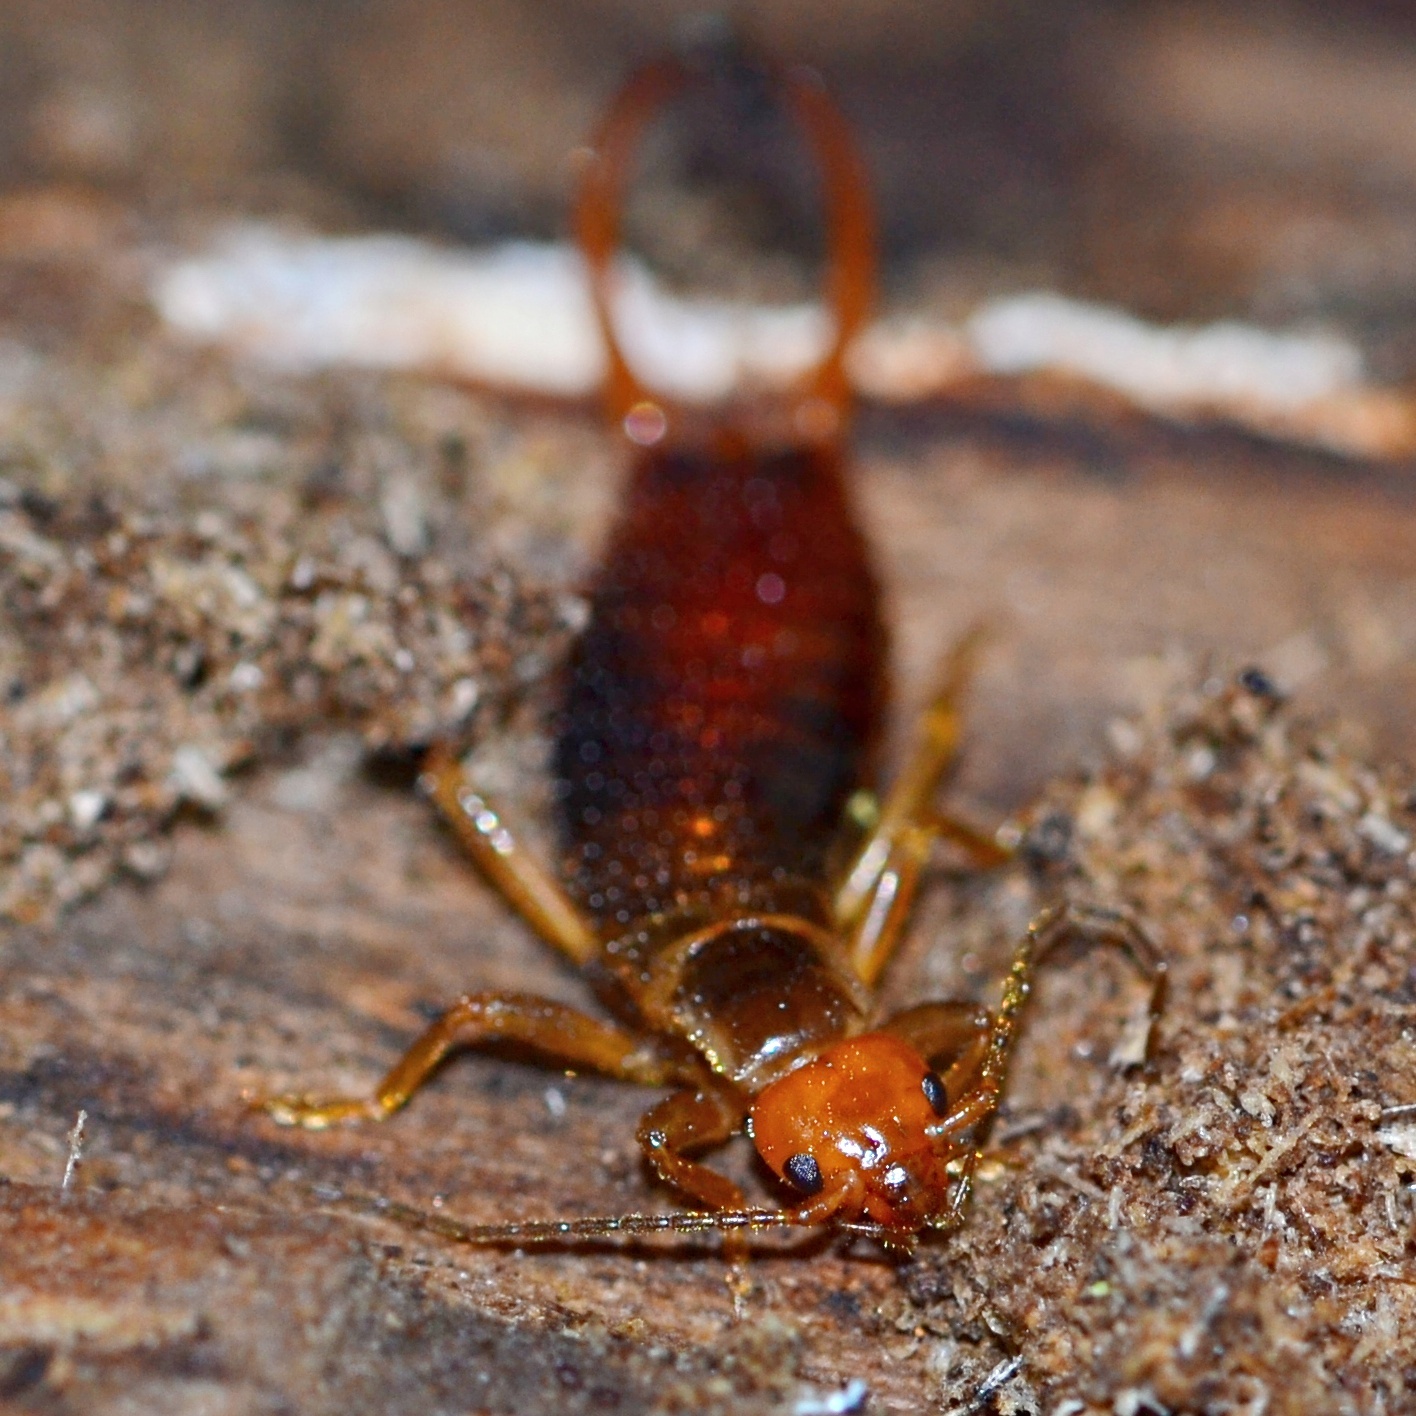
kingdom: Animalia
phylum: Arthropoda
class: Insecta
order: Dermaptera
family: Forficulidae
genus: Chelidurella
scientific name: Chelidurella acanthopygia
